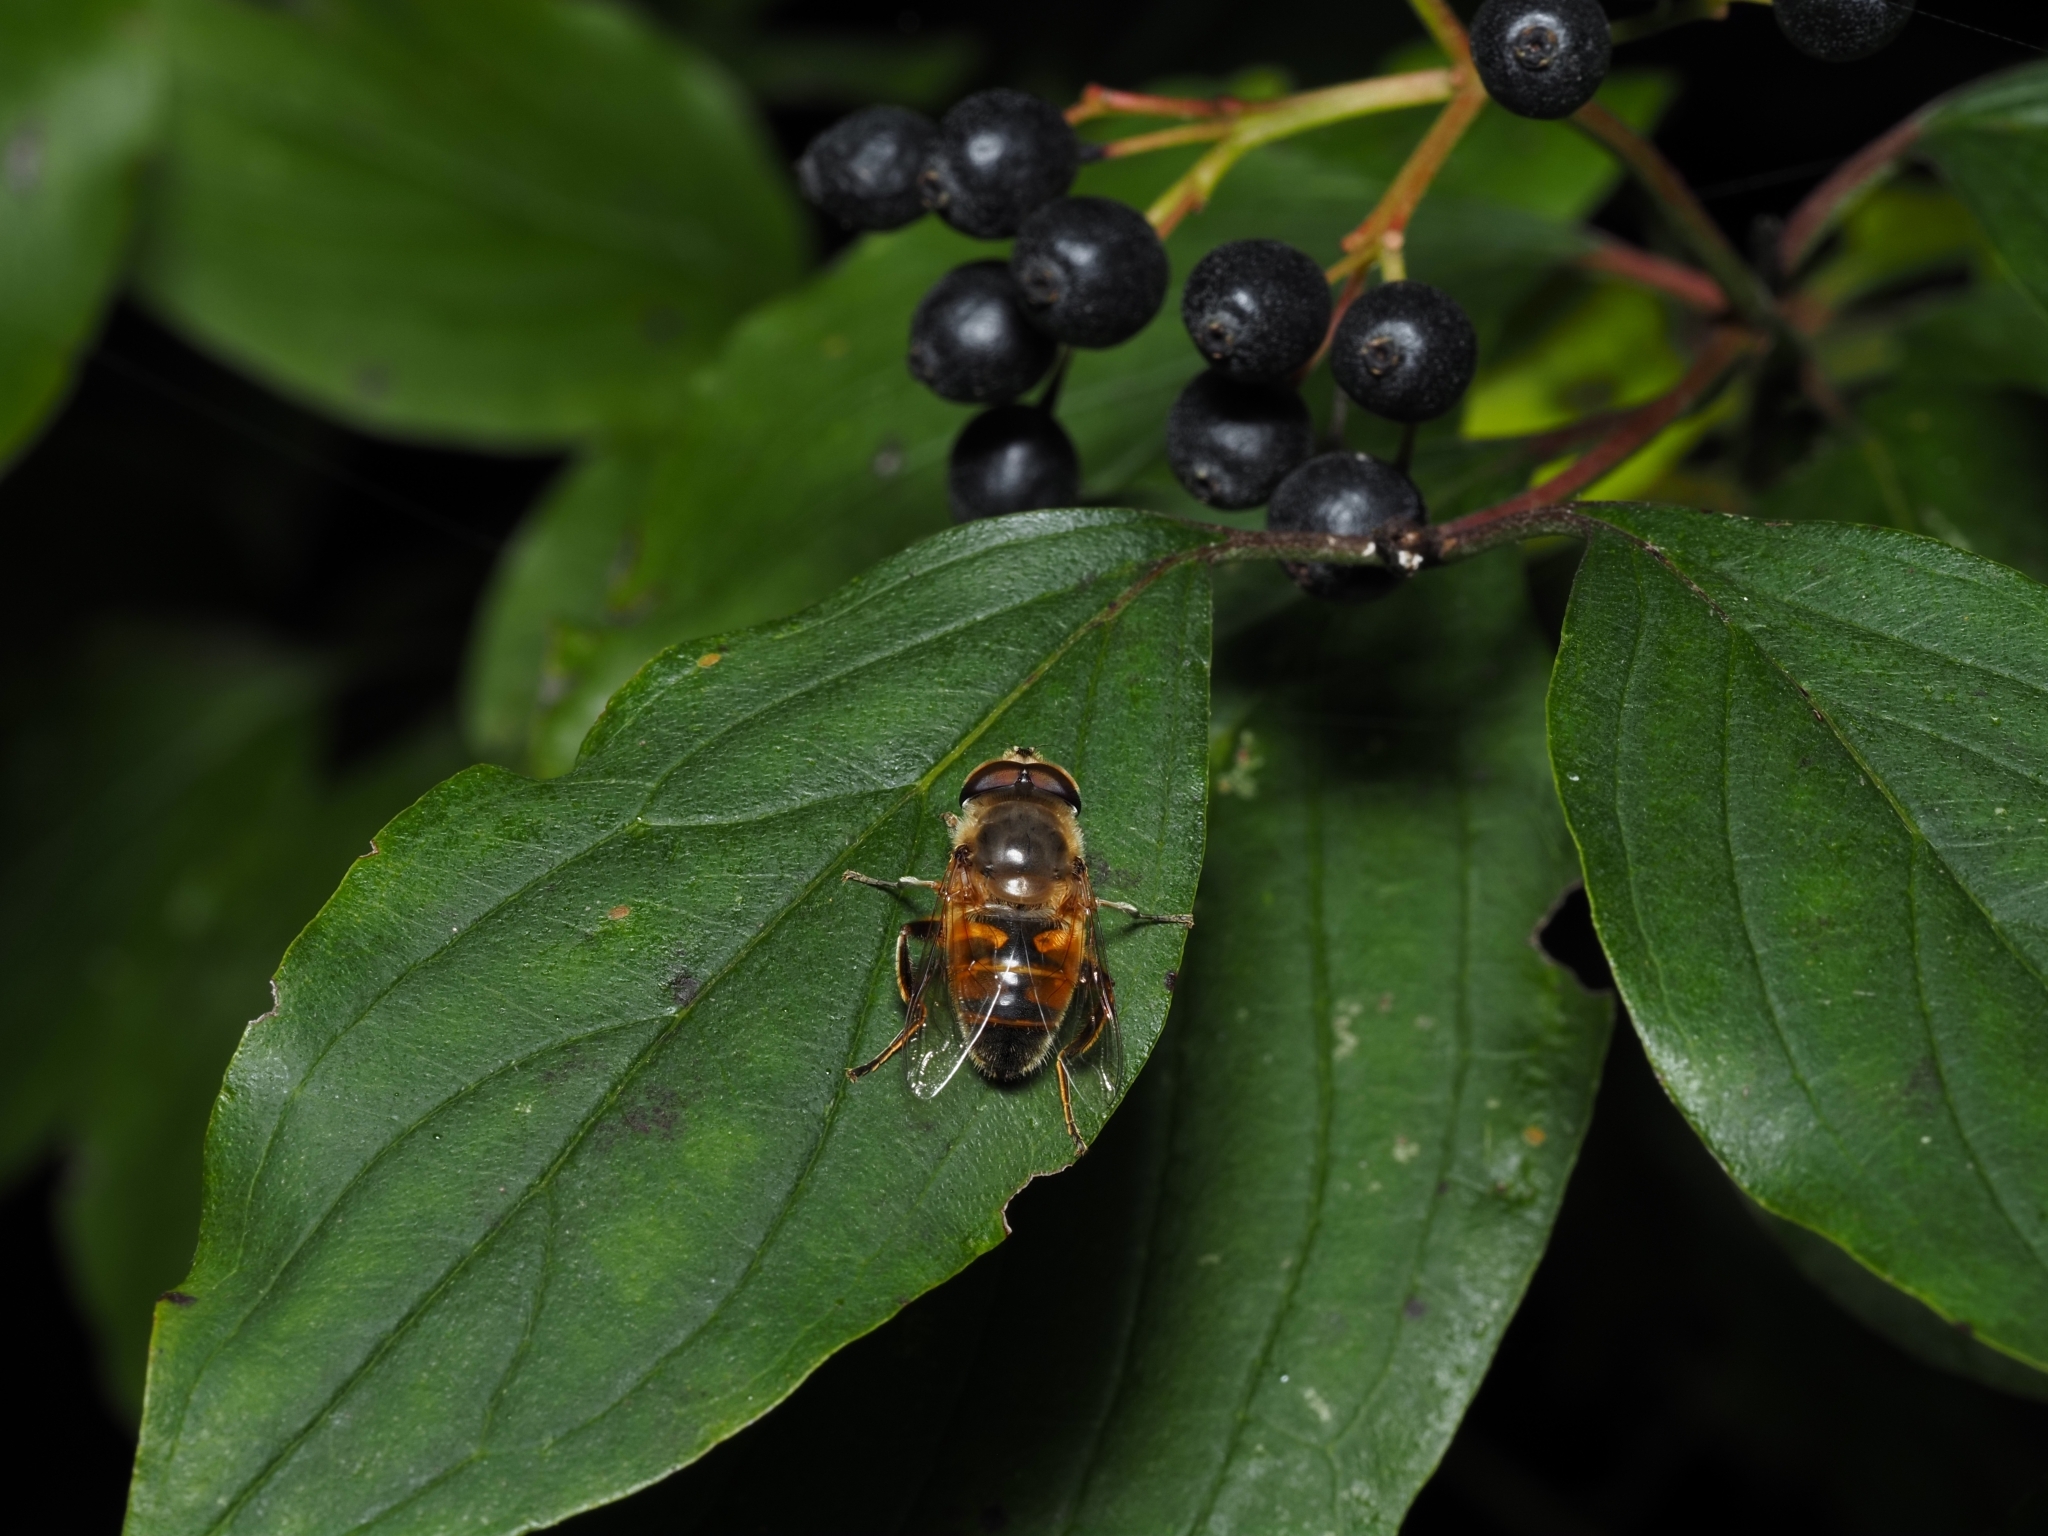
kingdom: Animalia
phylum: Arthropoda
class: Insecta
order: Diptera
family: Syrphidae
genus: Eristalis
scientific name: Eristalis tenax
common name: Drone fly
